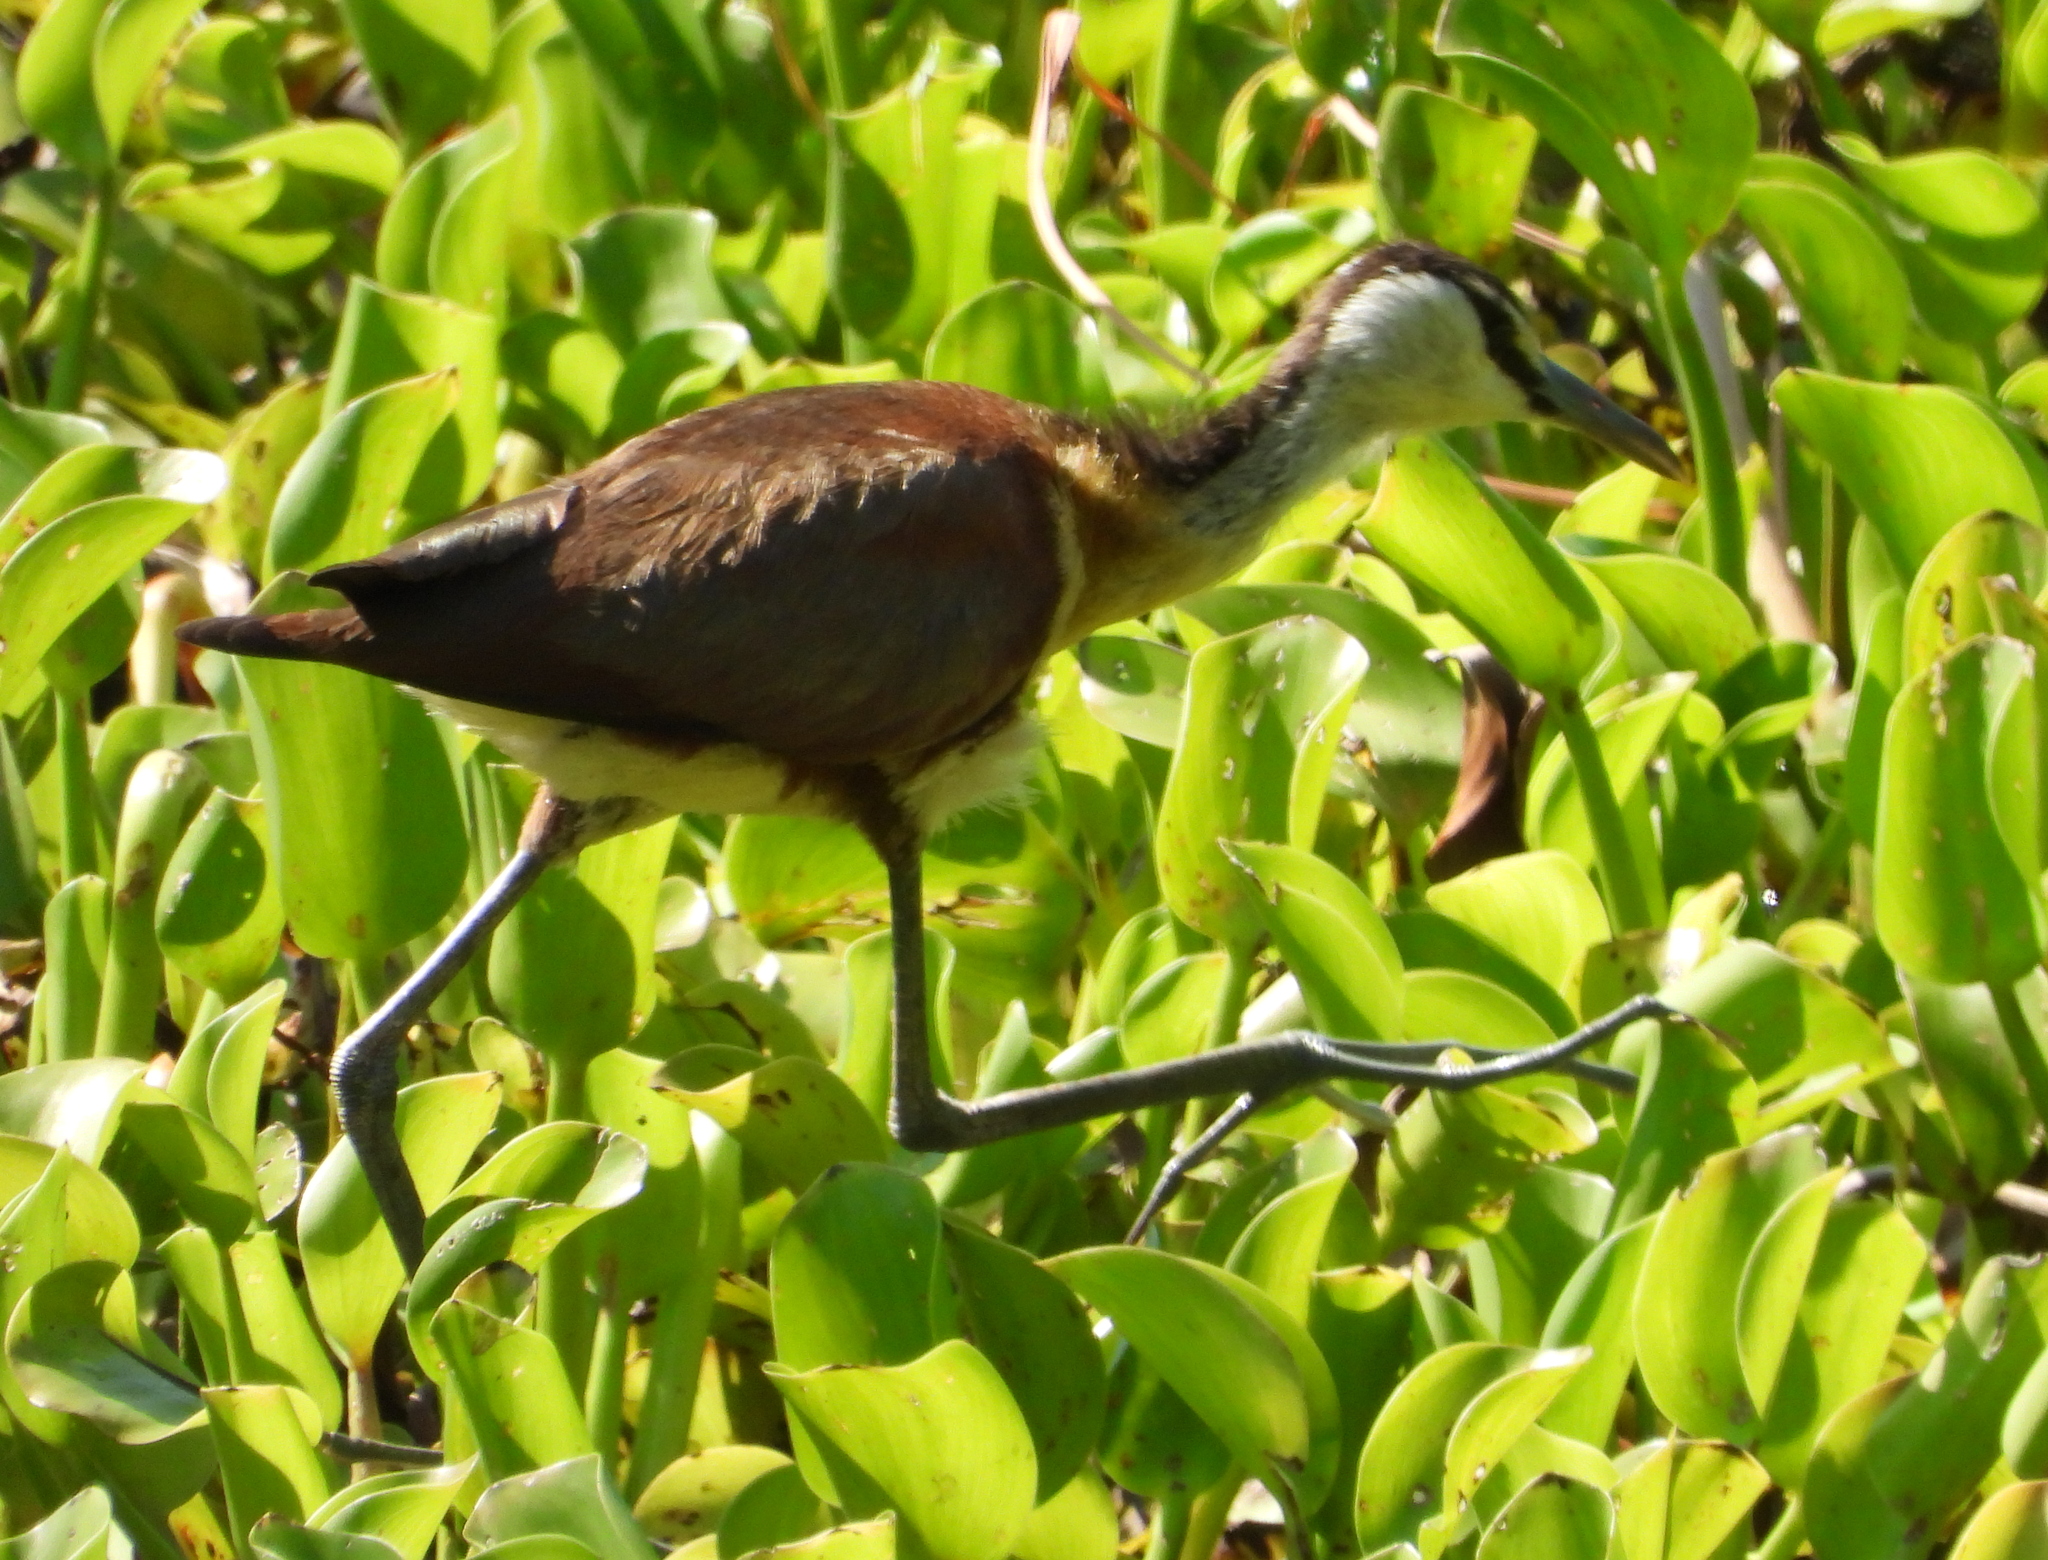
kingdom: Animalia
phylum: Chordata
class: Aves
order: Charadriiformes
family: Jacanidae
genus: Actophilornis
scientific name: Actophilornis africanus
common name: African jacana
